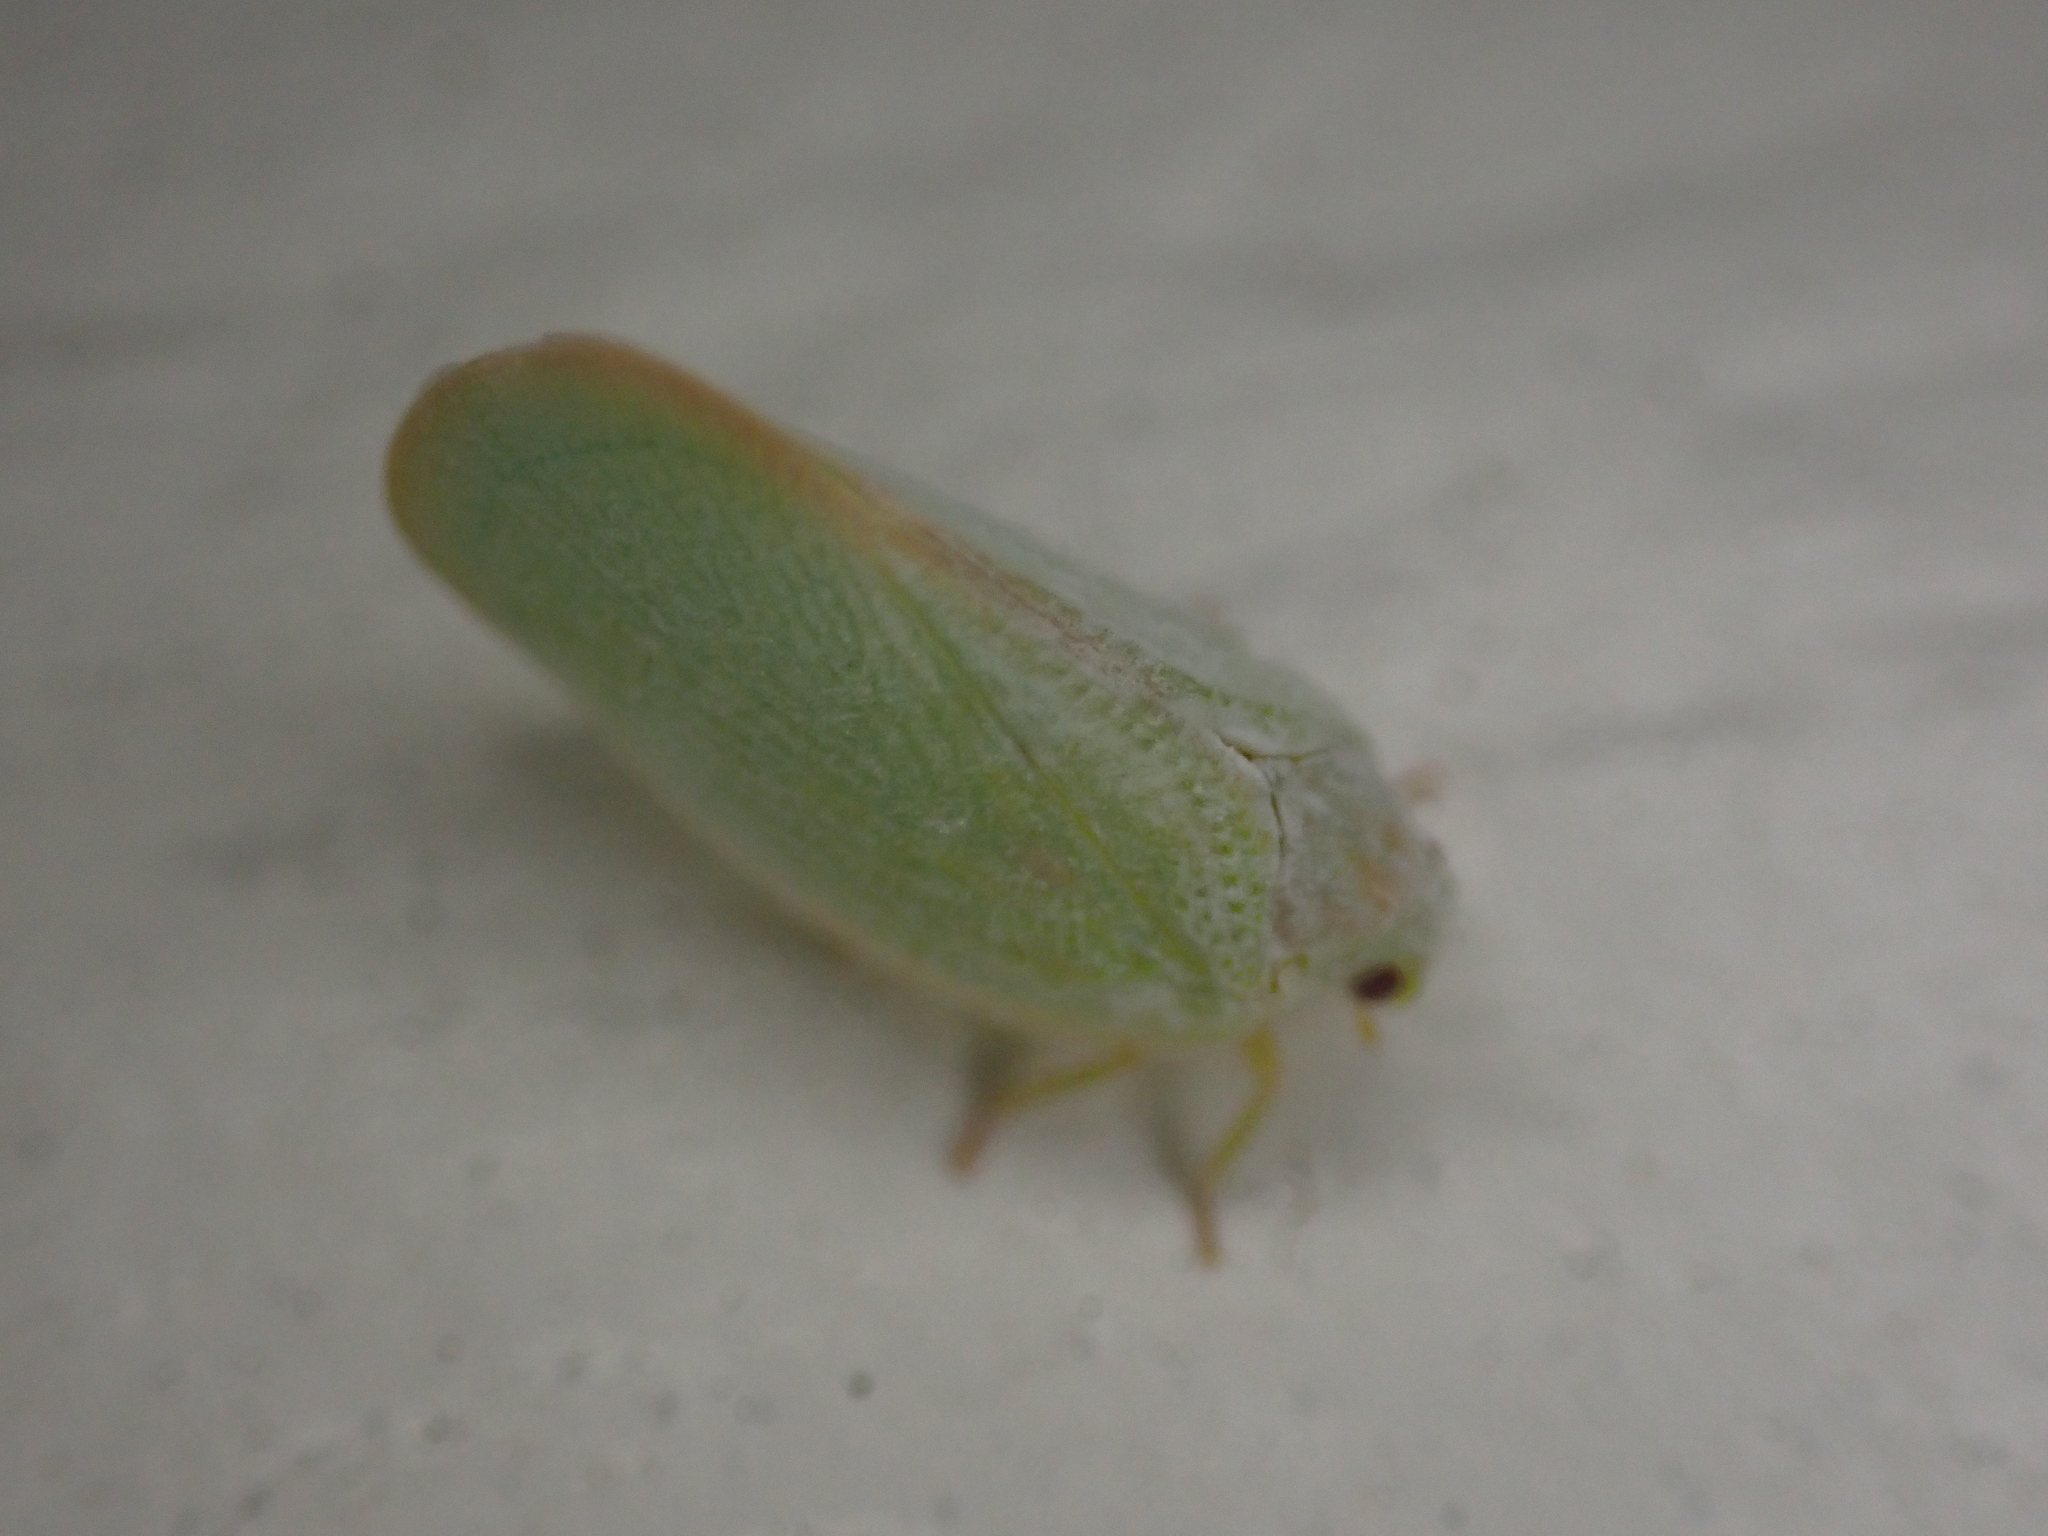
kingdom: Animalia
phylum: Arthropoda
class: Insecta
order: Hemiptera
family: Flatidae
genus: Ormenoides
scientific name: Ormenoides venusta
